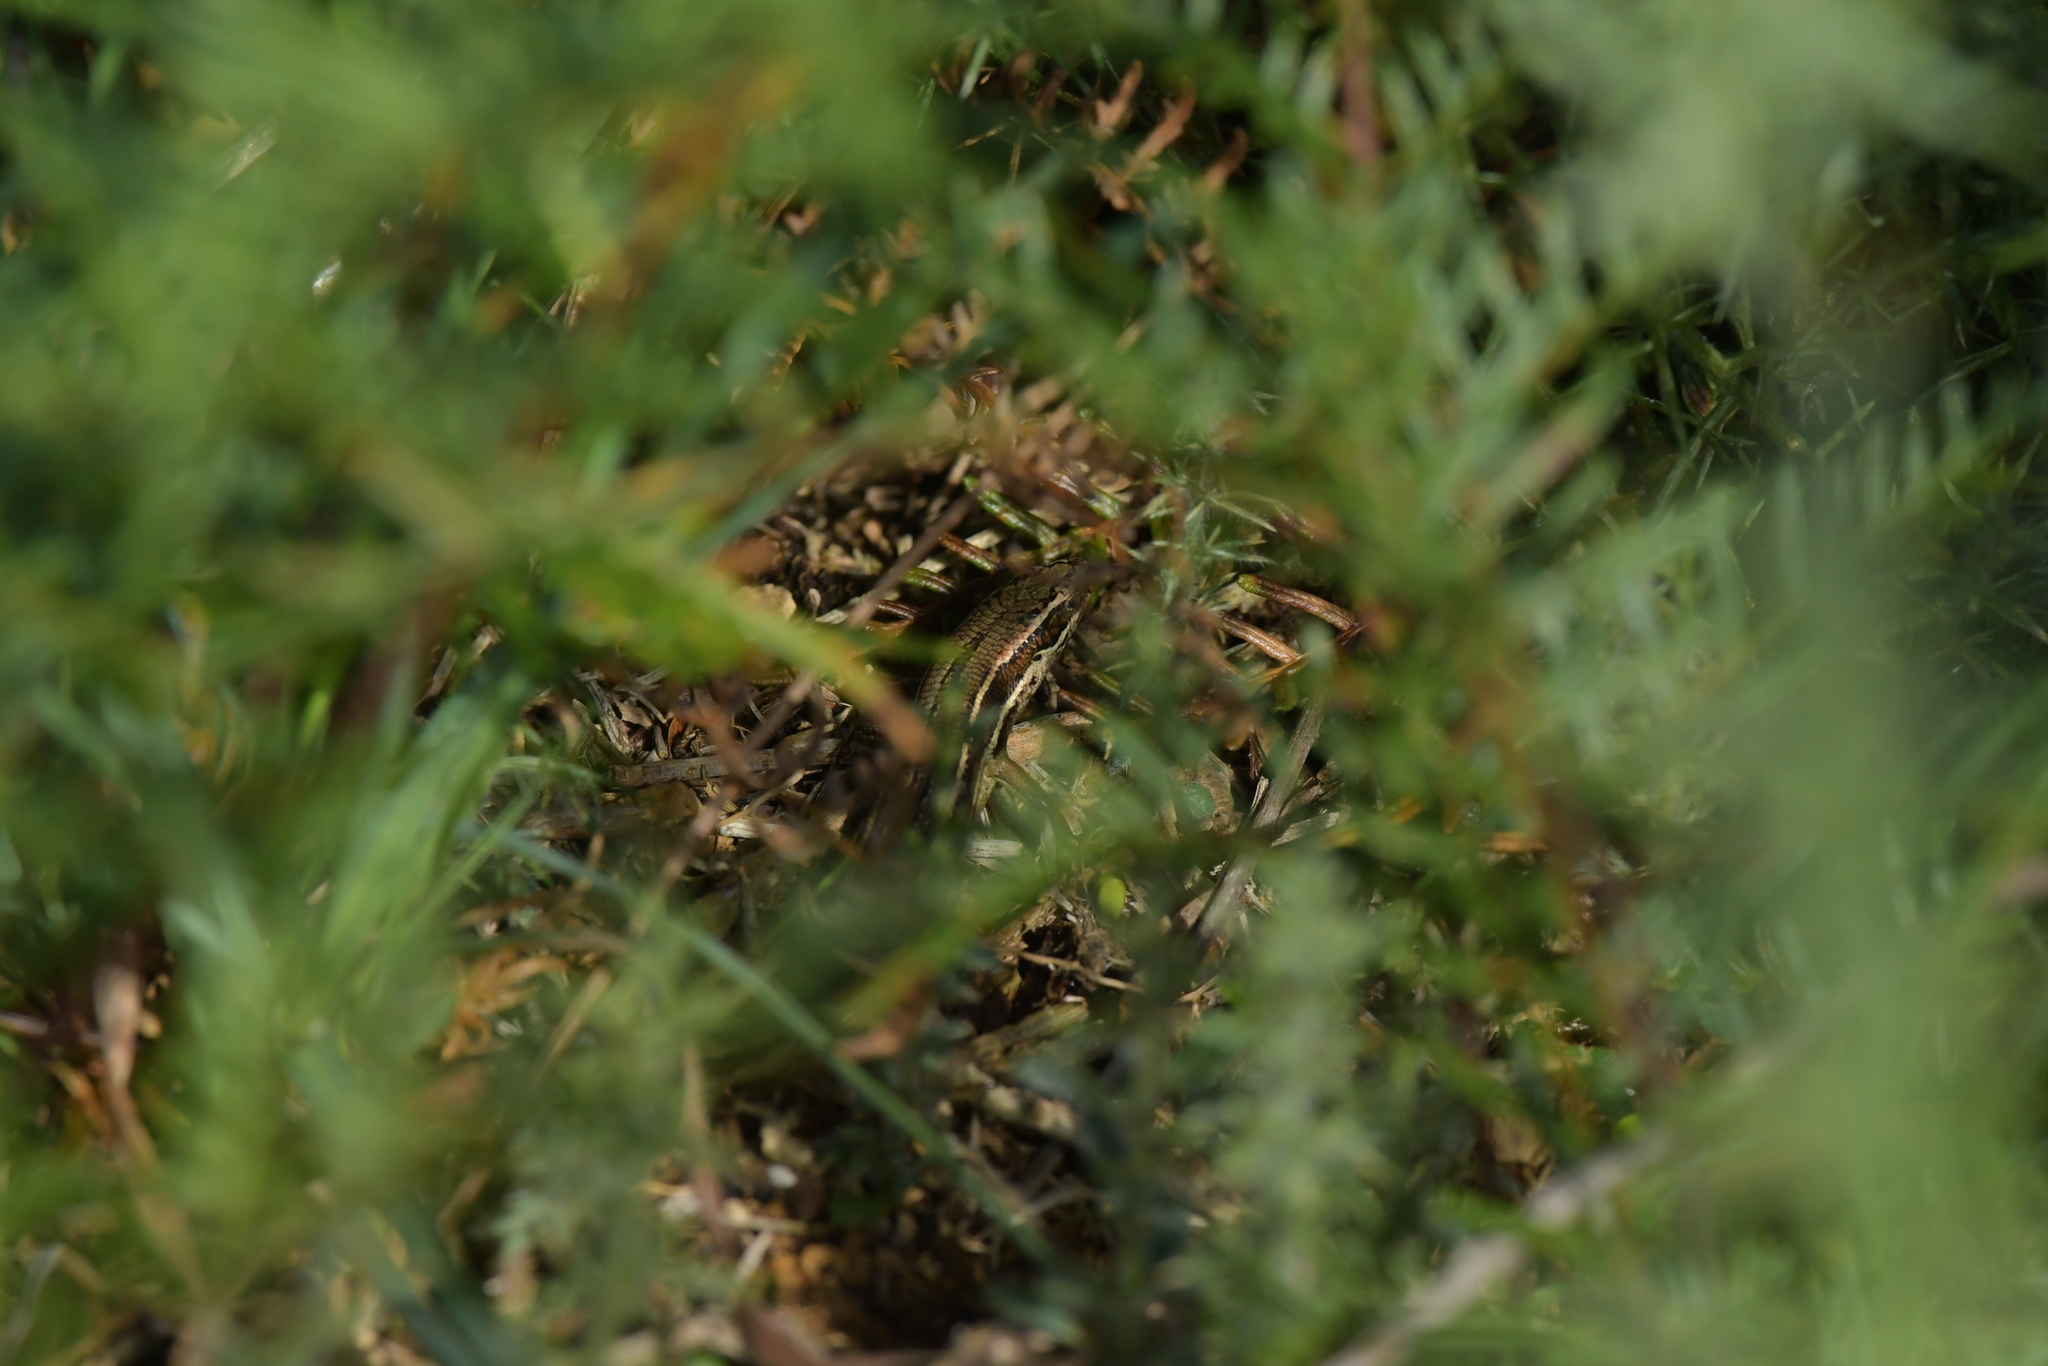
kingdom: Animalia
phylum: Chordata
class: Squamata
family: Scincidae
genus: Oligosoma
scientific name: Oligosoma polychroma
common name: Common new zealand skink
